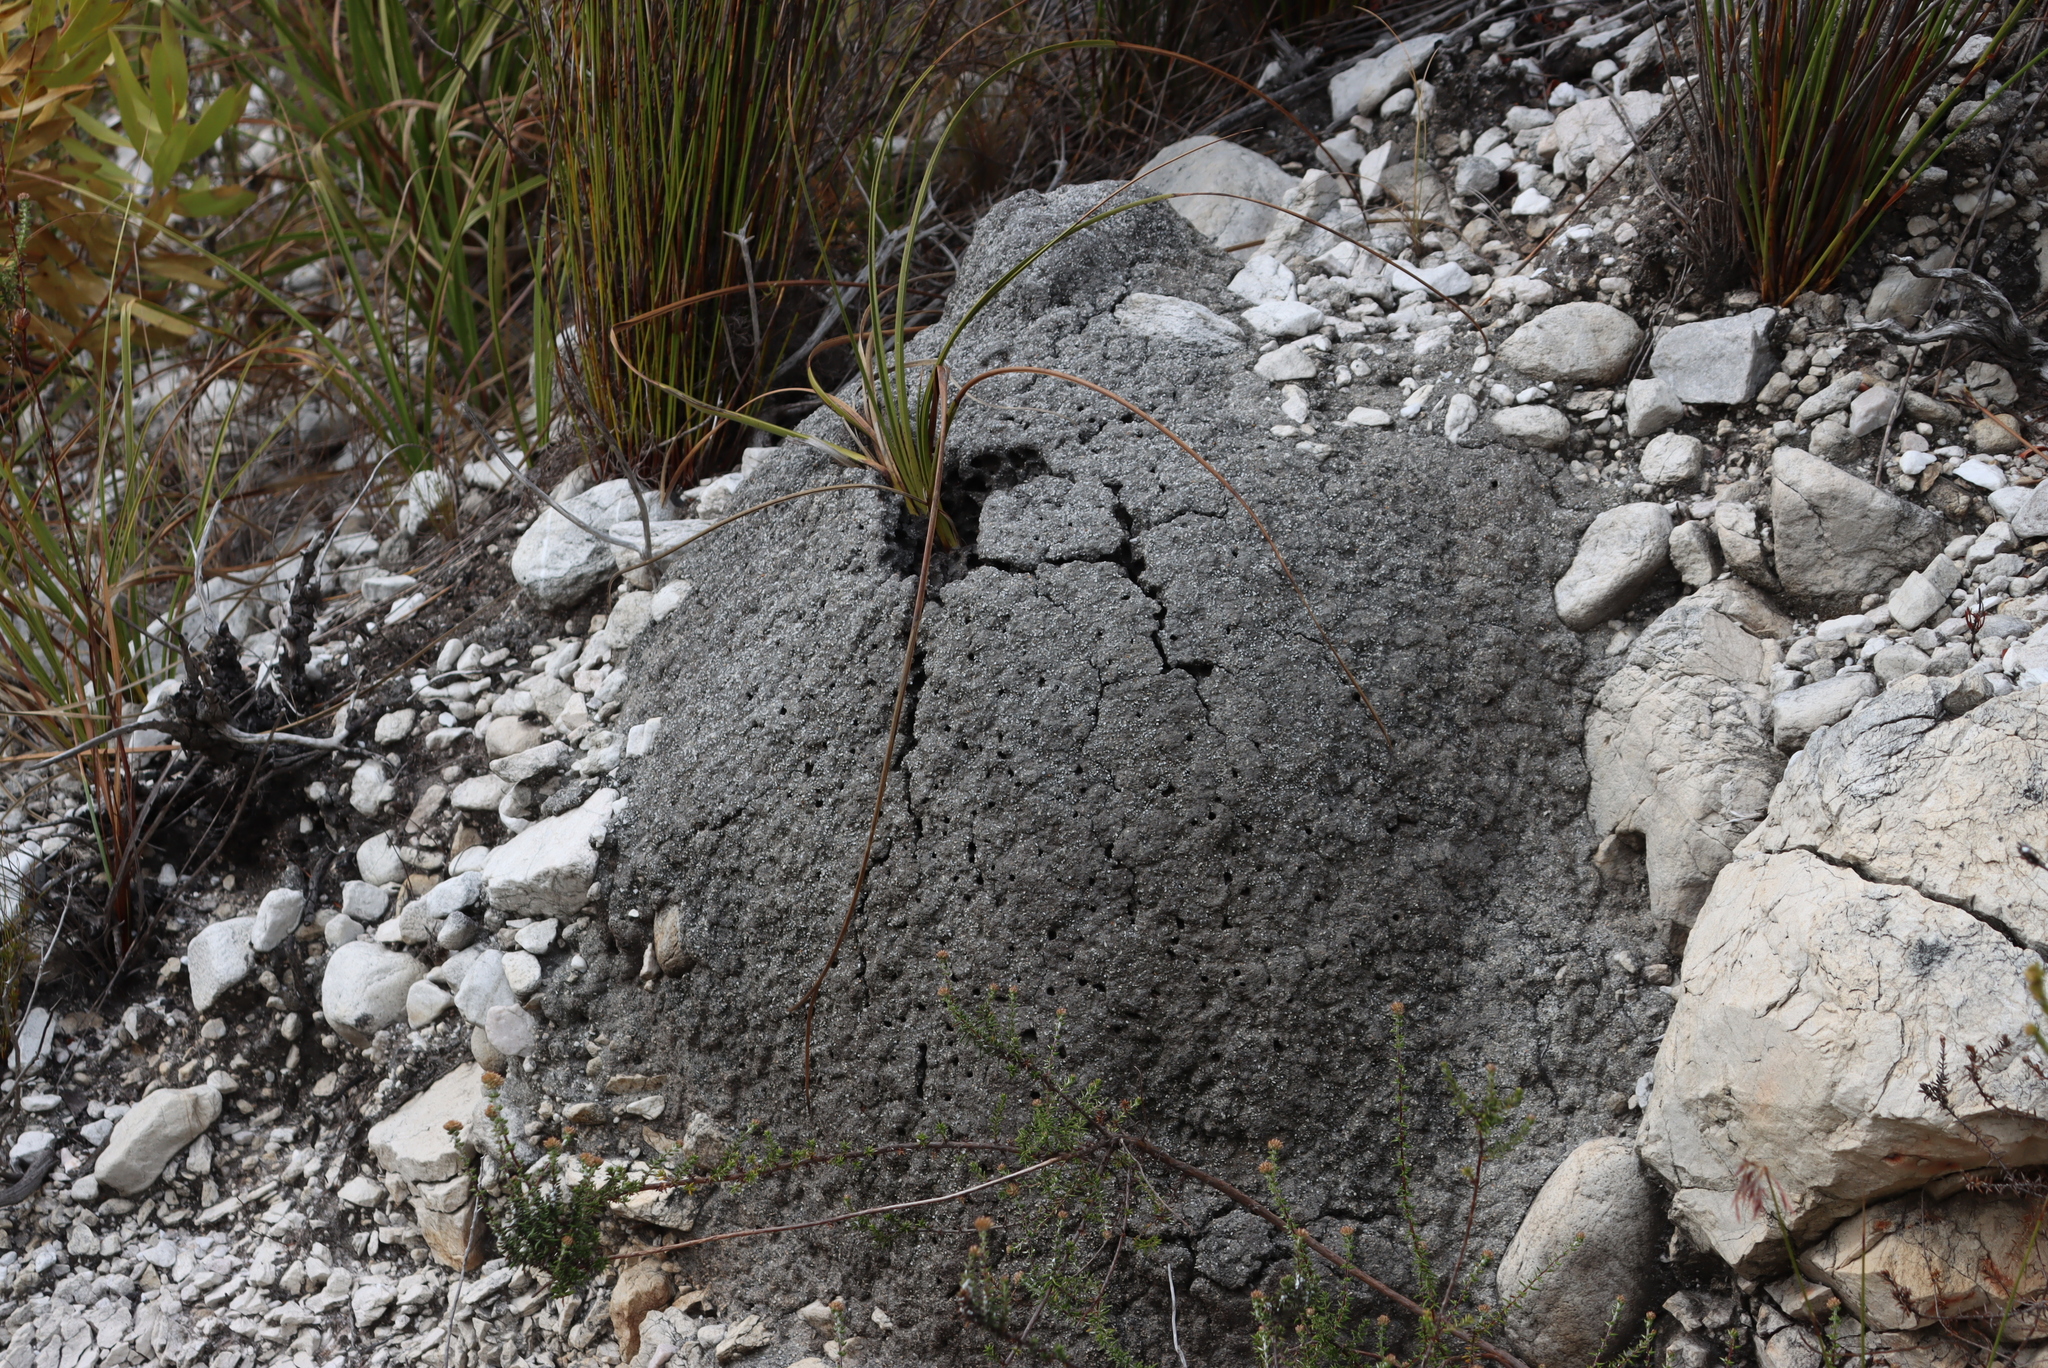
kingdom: Animalia
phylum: Arthropoda
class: Insecta
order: Blattodea
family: Termitidae
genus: Amitermes
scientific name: Amitermes hastatus
